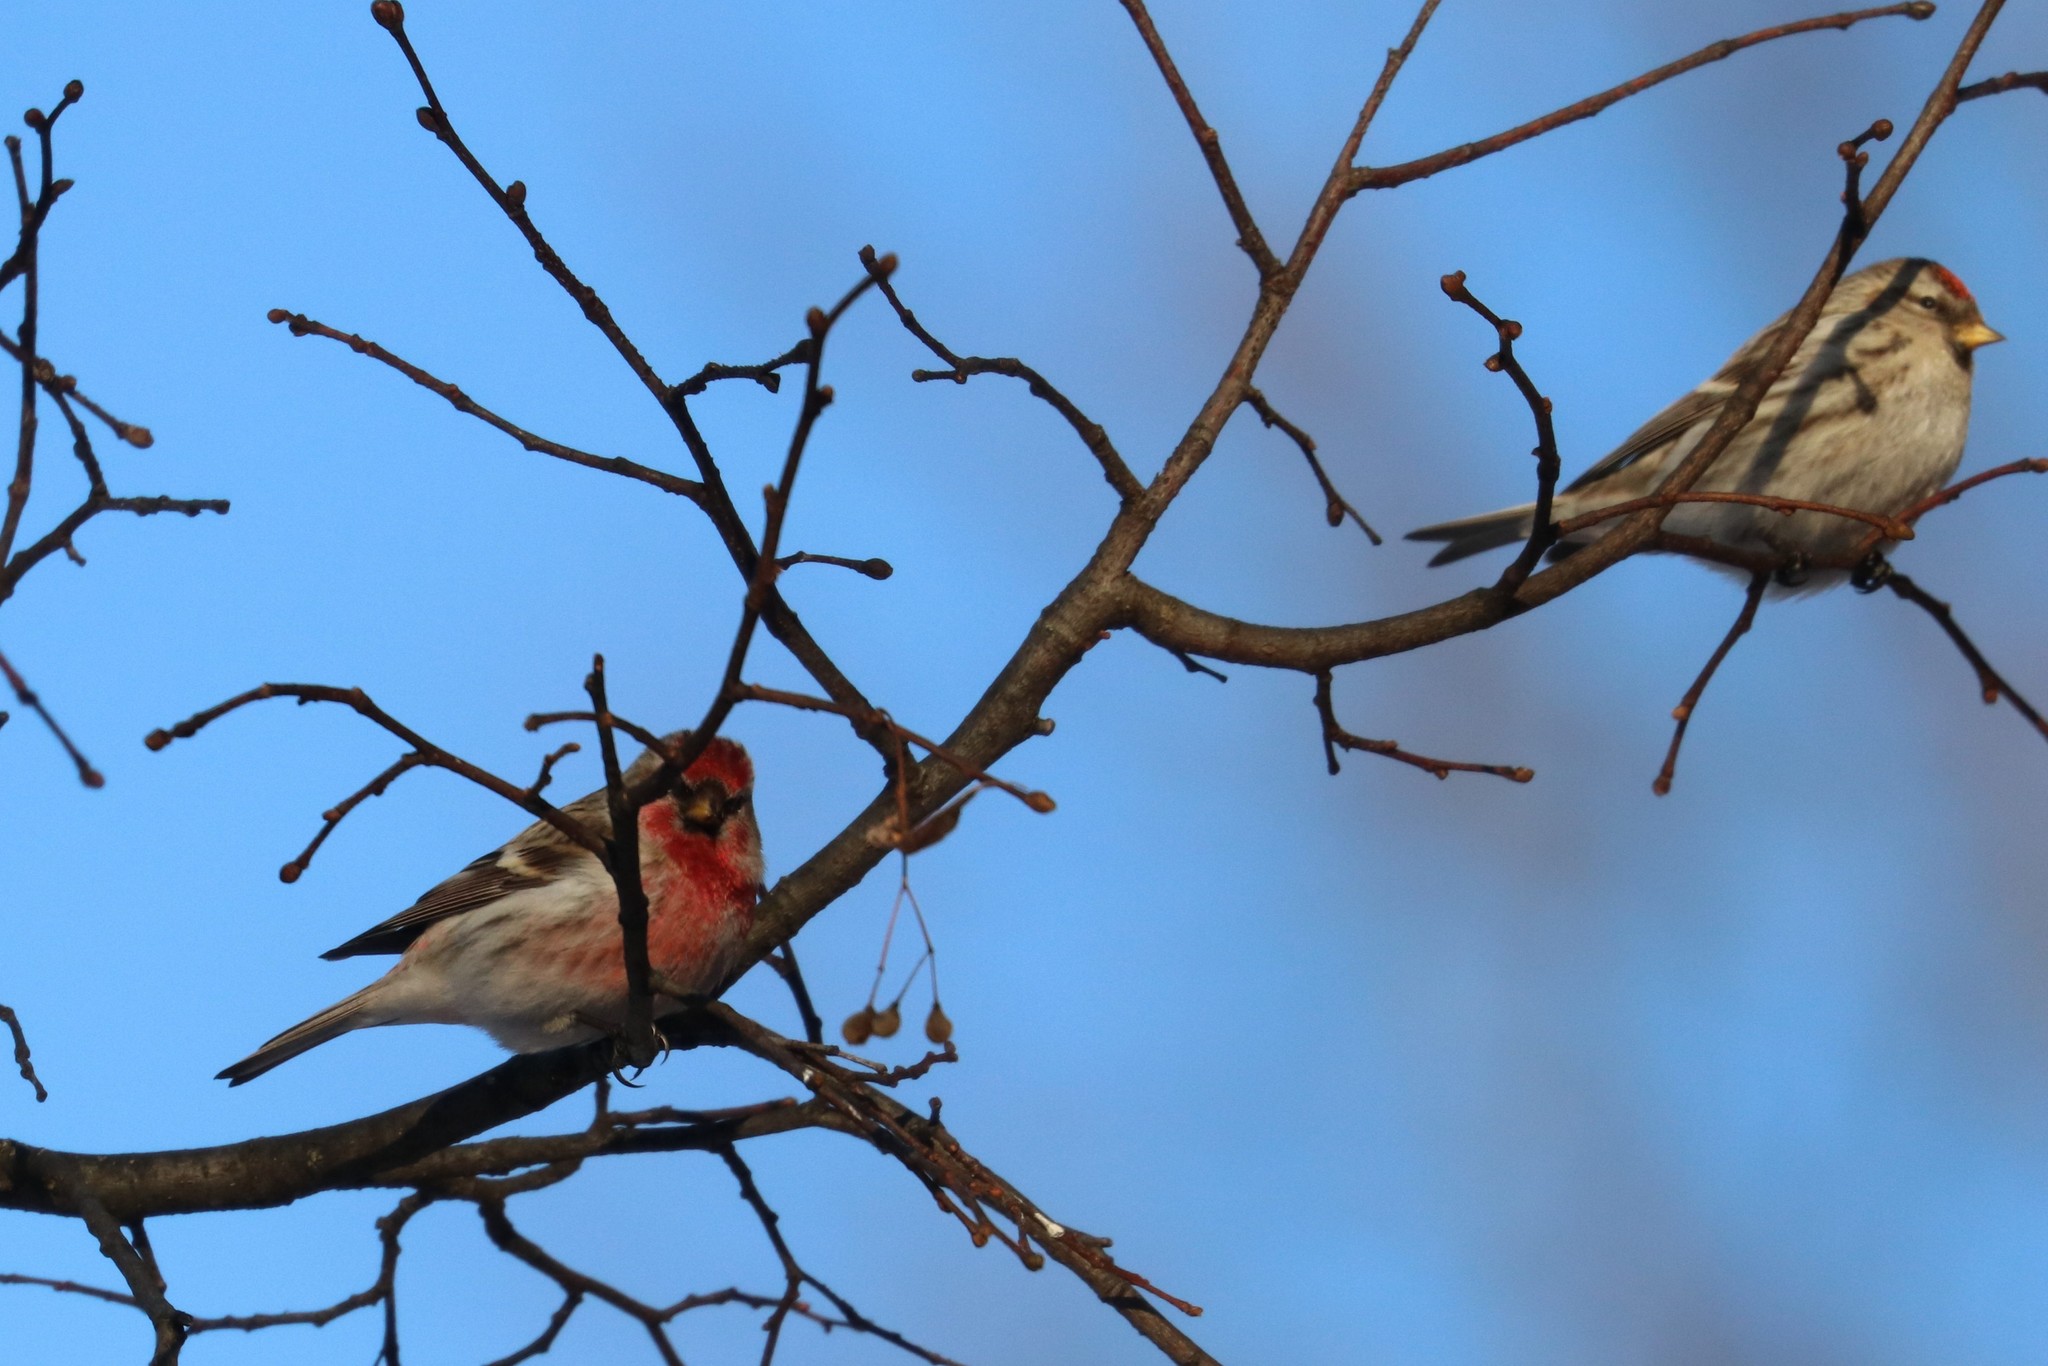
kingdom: Animalia
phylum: Chordata
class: Aves
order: Passeriformes
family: Fringillidae
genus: Acanthis
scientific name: Acanthis flammea
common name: Common redpoll
